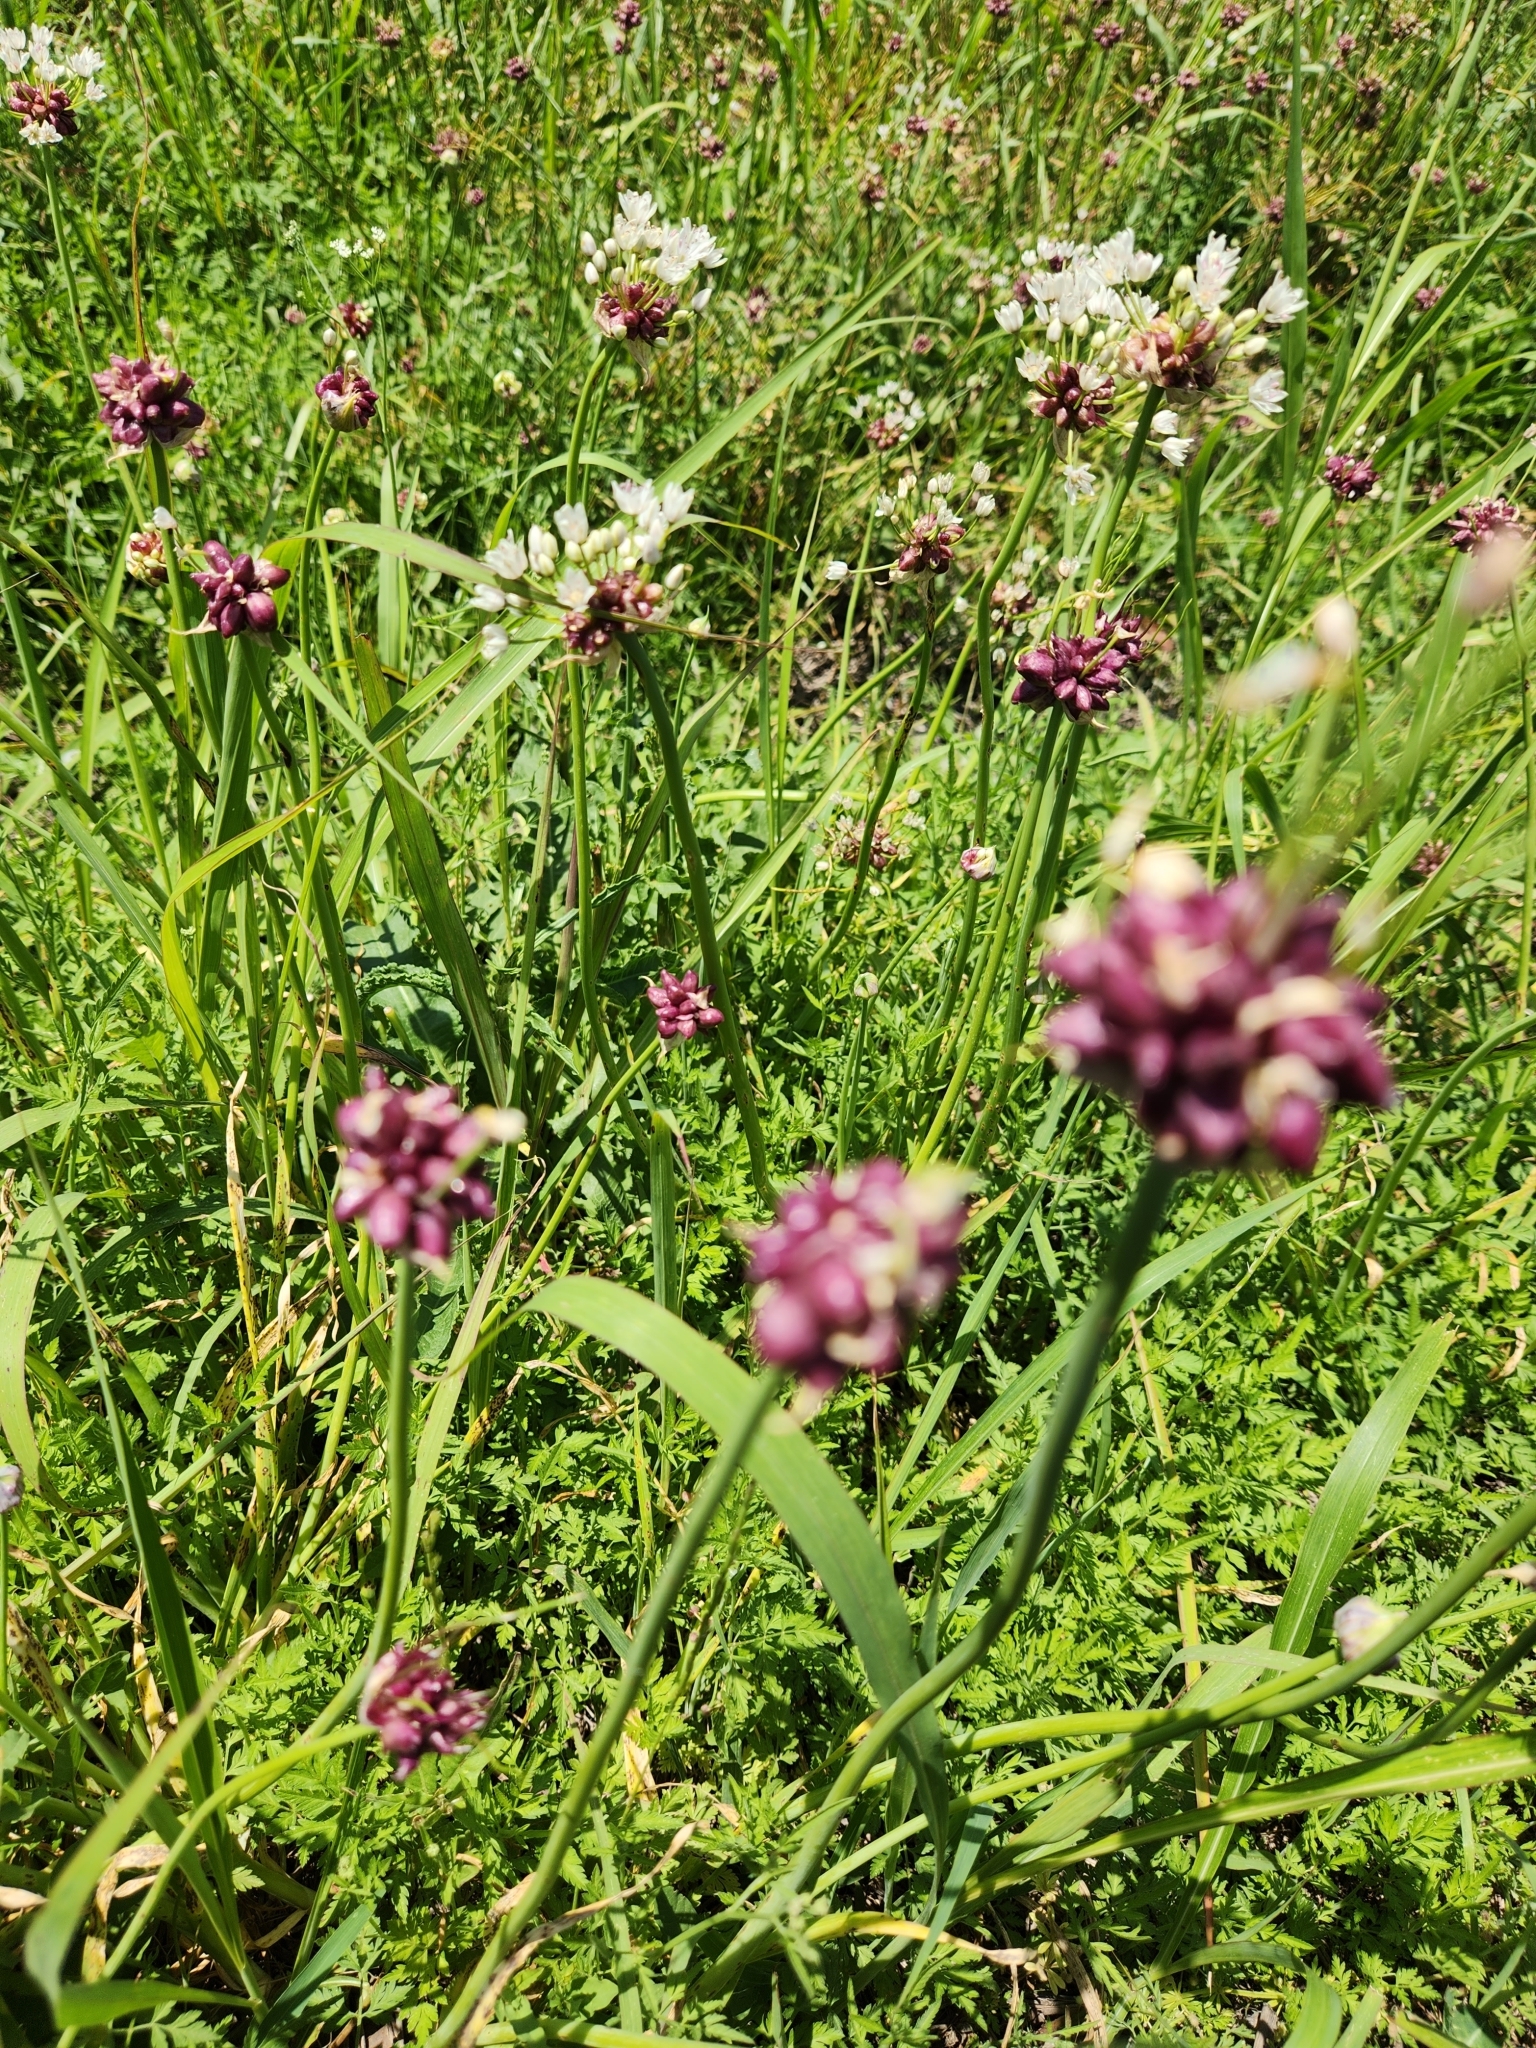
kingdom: Plantae
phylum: Tracheophyta
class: Liliopsida
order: Asparagales
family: Amaryllidaceae
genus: Allium
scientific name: Allium canadense
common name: Meadow garlic
